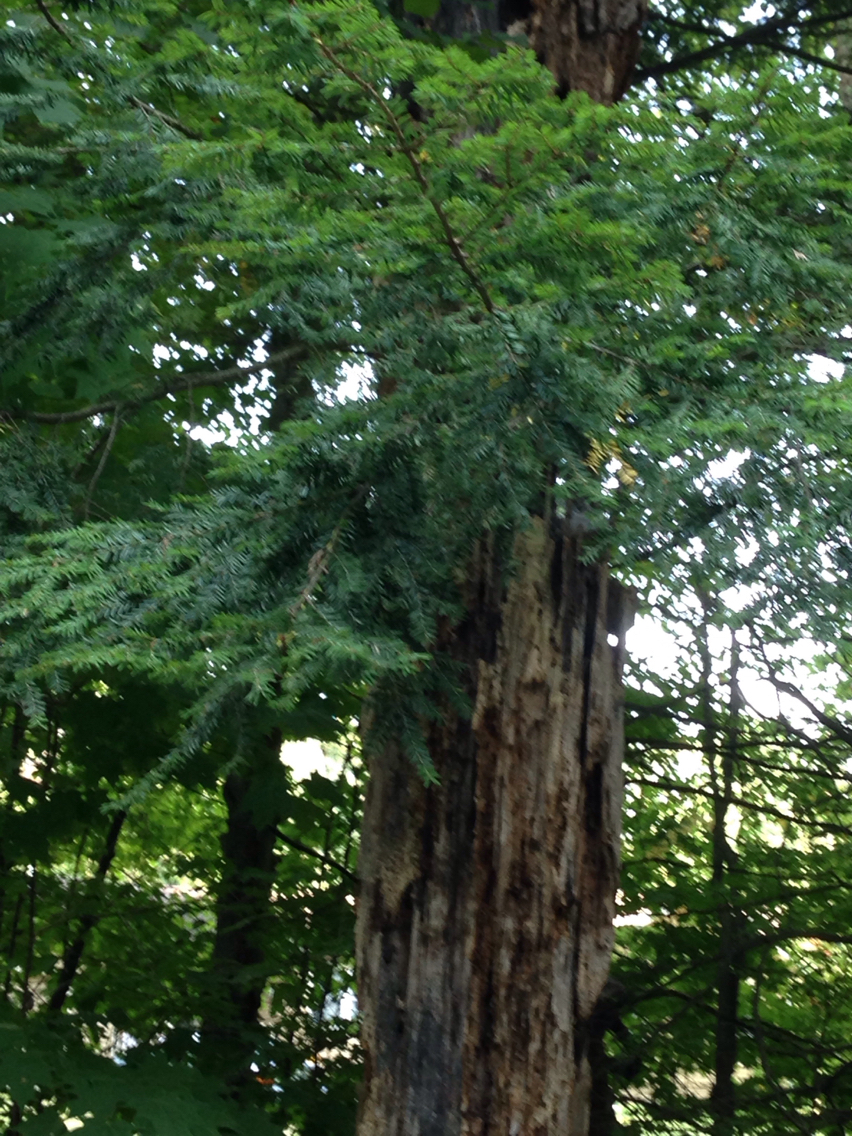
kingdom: Plantae
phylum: Tracheophyta
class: Pinopsida
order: Pinales
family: Pinaceae
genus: Tsuga
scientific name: Tsuga canadensis
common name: Eastern hemlock
